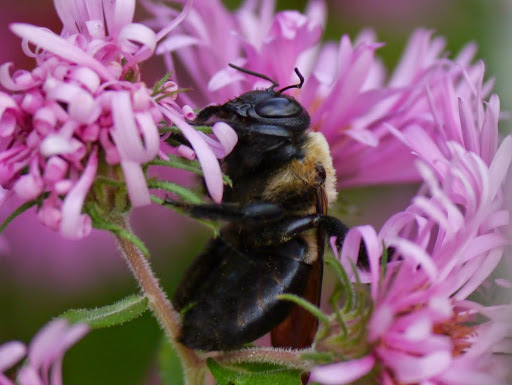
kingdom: Animalia
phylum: Arthropoda
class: Insecta
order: Hymenoptera
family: Apidae
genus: Xylocopa
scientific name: Xylocopa virginica
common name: Carpenter bee
